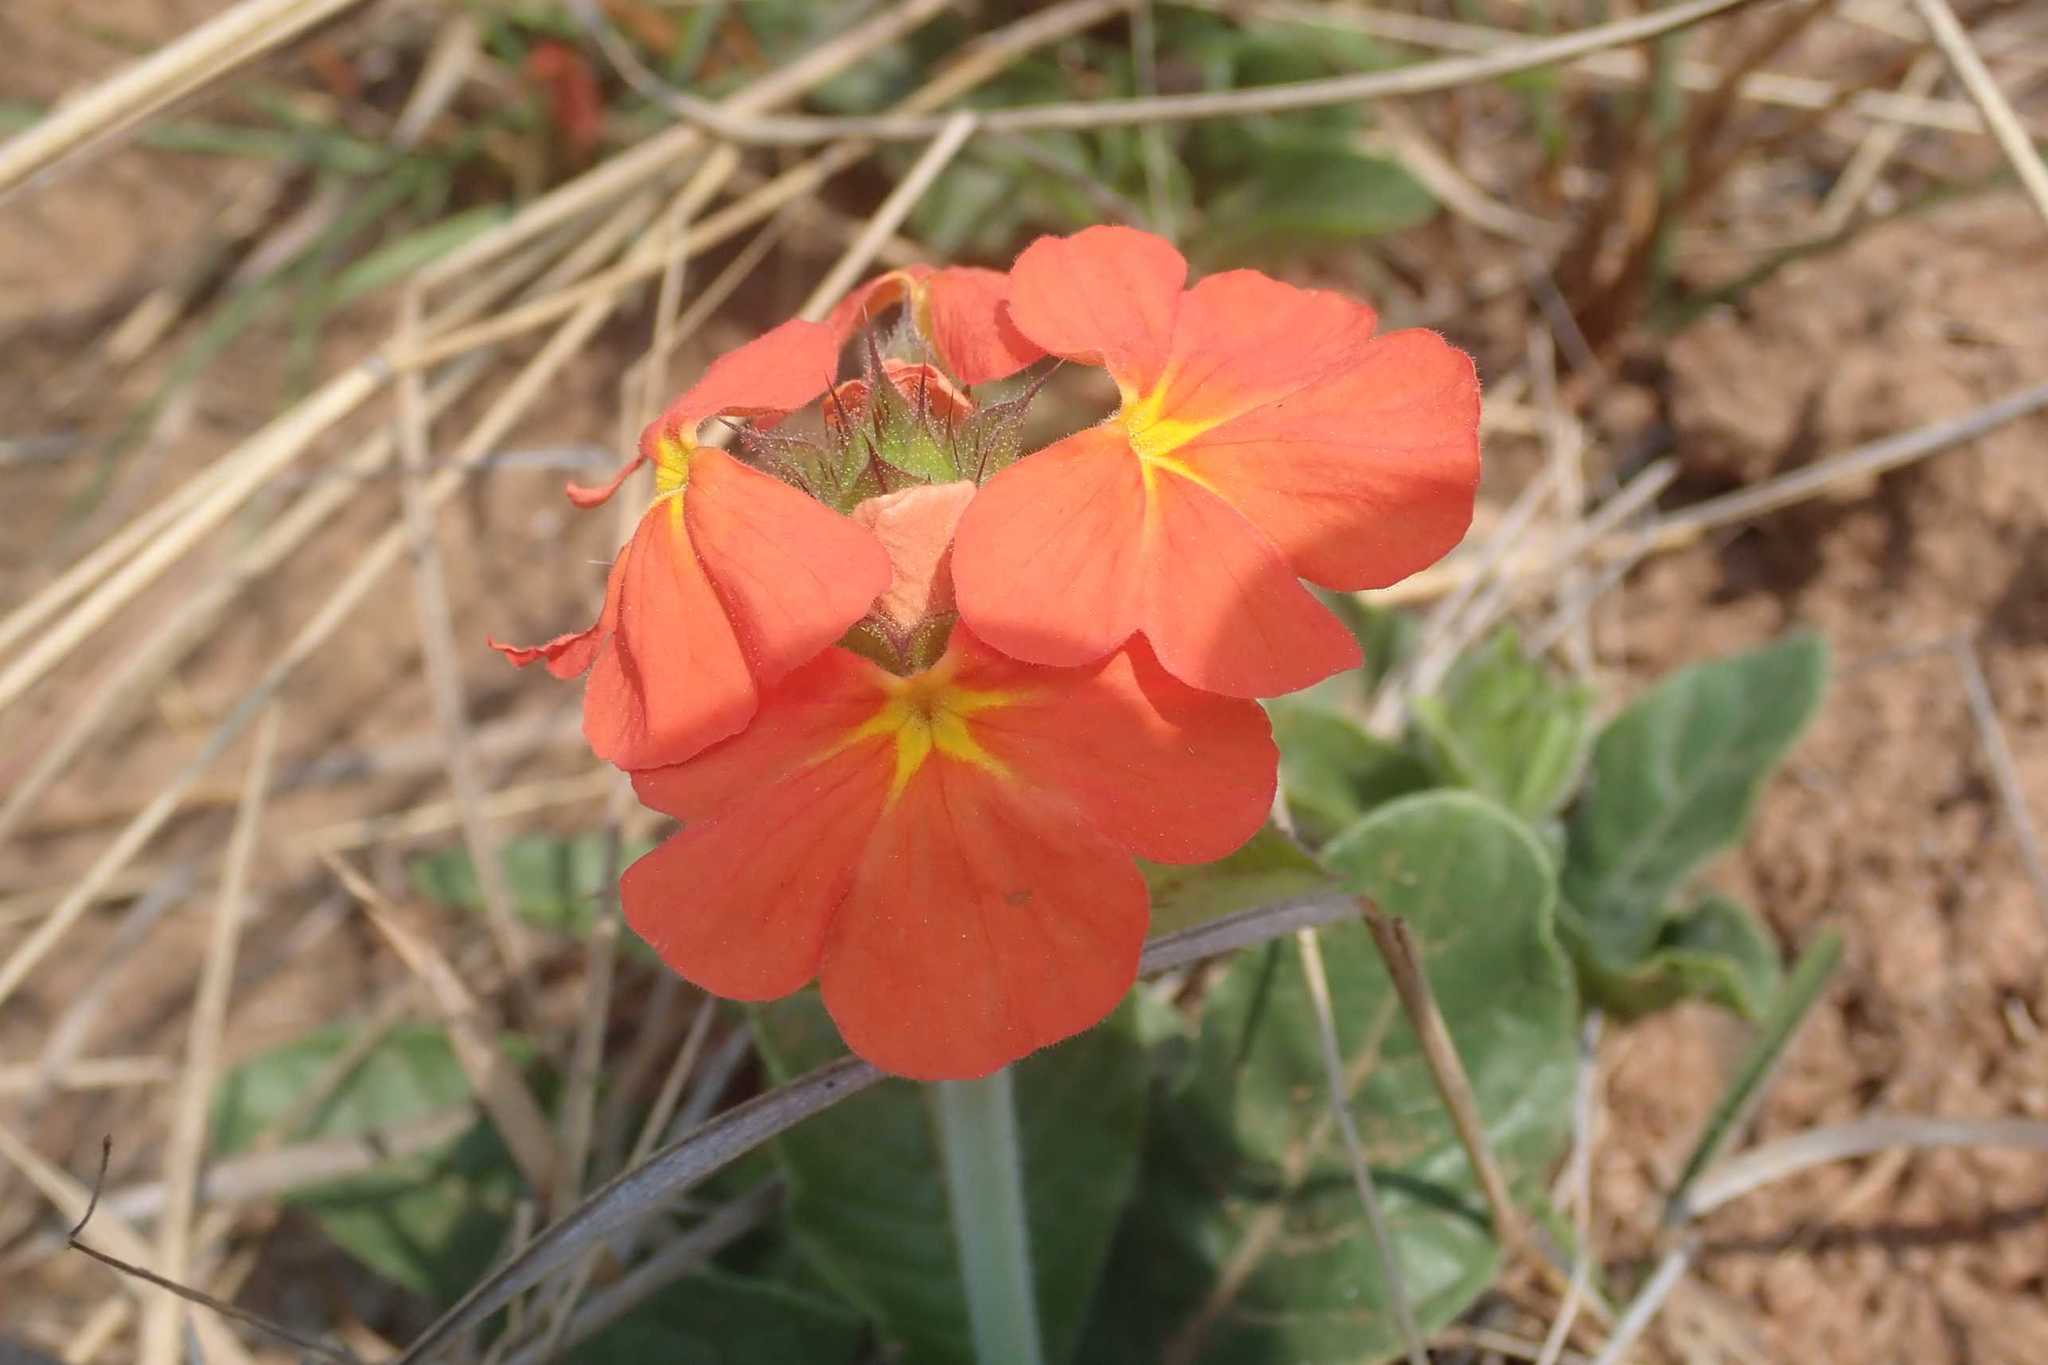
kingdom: Plantae
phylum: Tracheophyta
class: Magnoliopsida
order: Lamiales
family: Acanthaceae
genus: Crossandra
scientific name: Crossandra greenstockii
